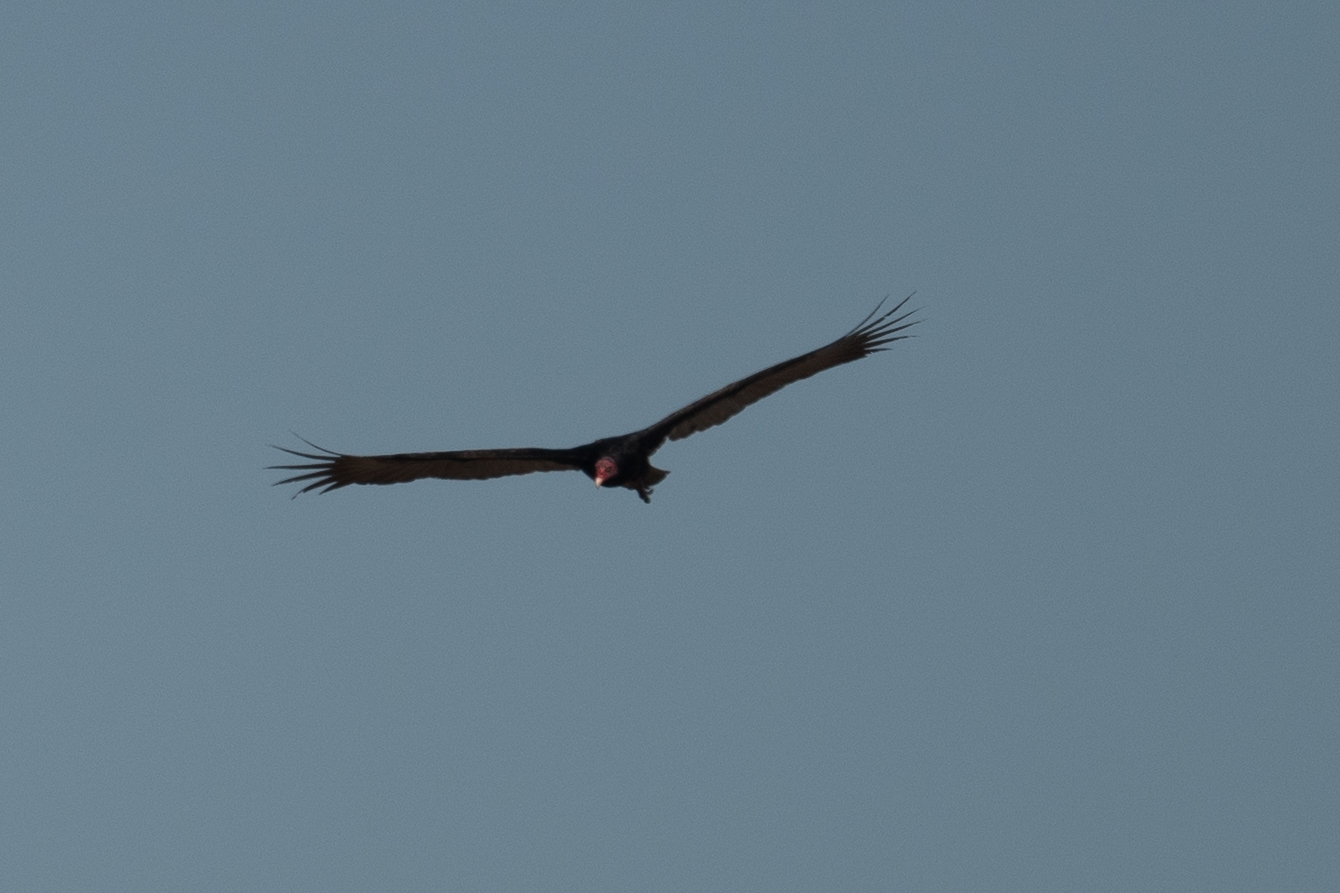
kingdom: Animalia
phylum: Chordata
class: Aves
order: Accipitriformes
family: Cathartidae
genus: Cathartes
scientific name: Cathartes aura
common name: Turkey vulture
